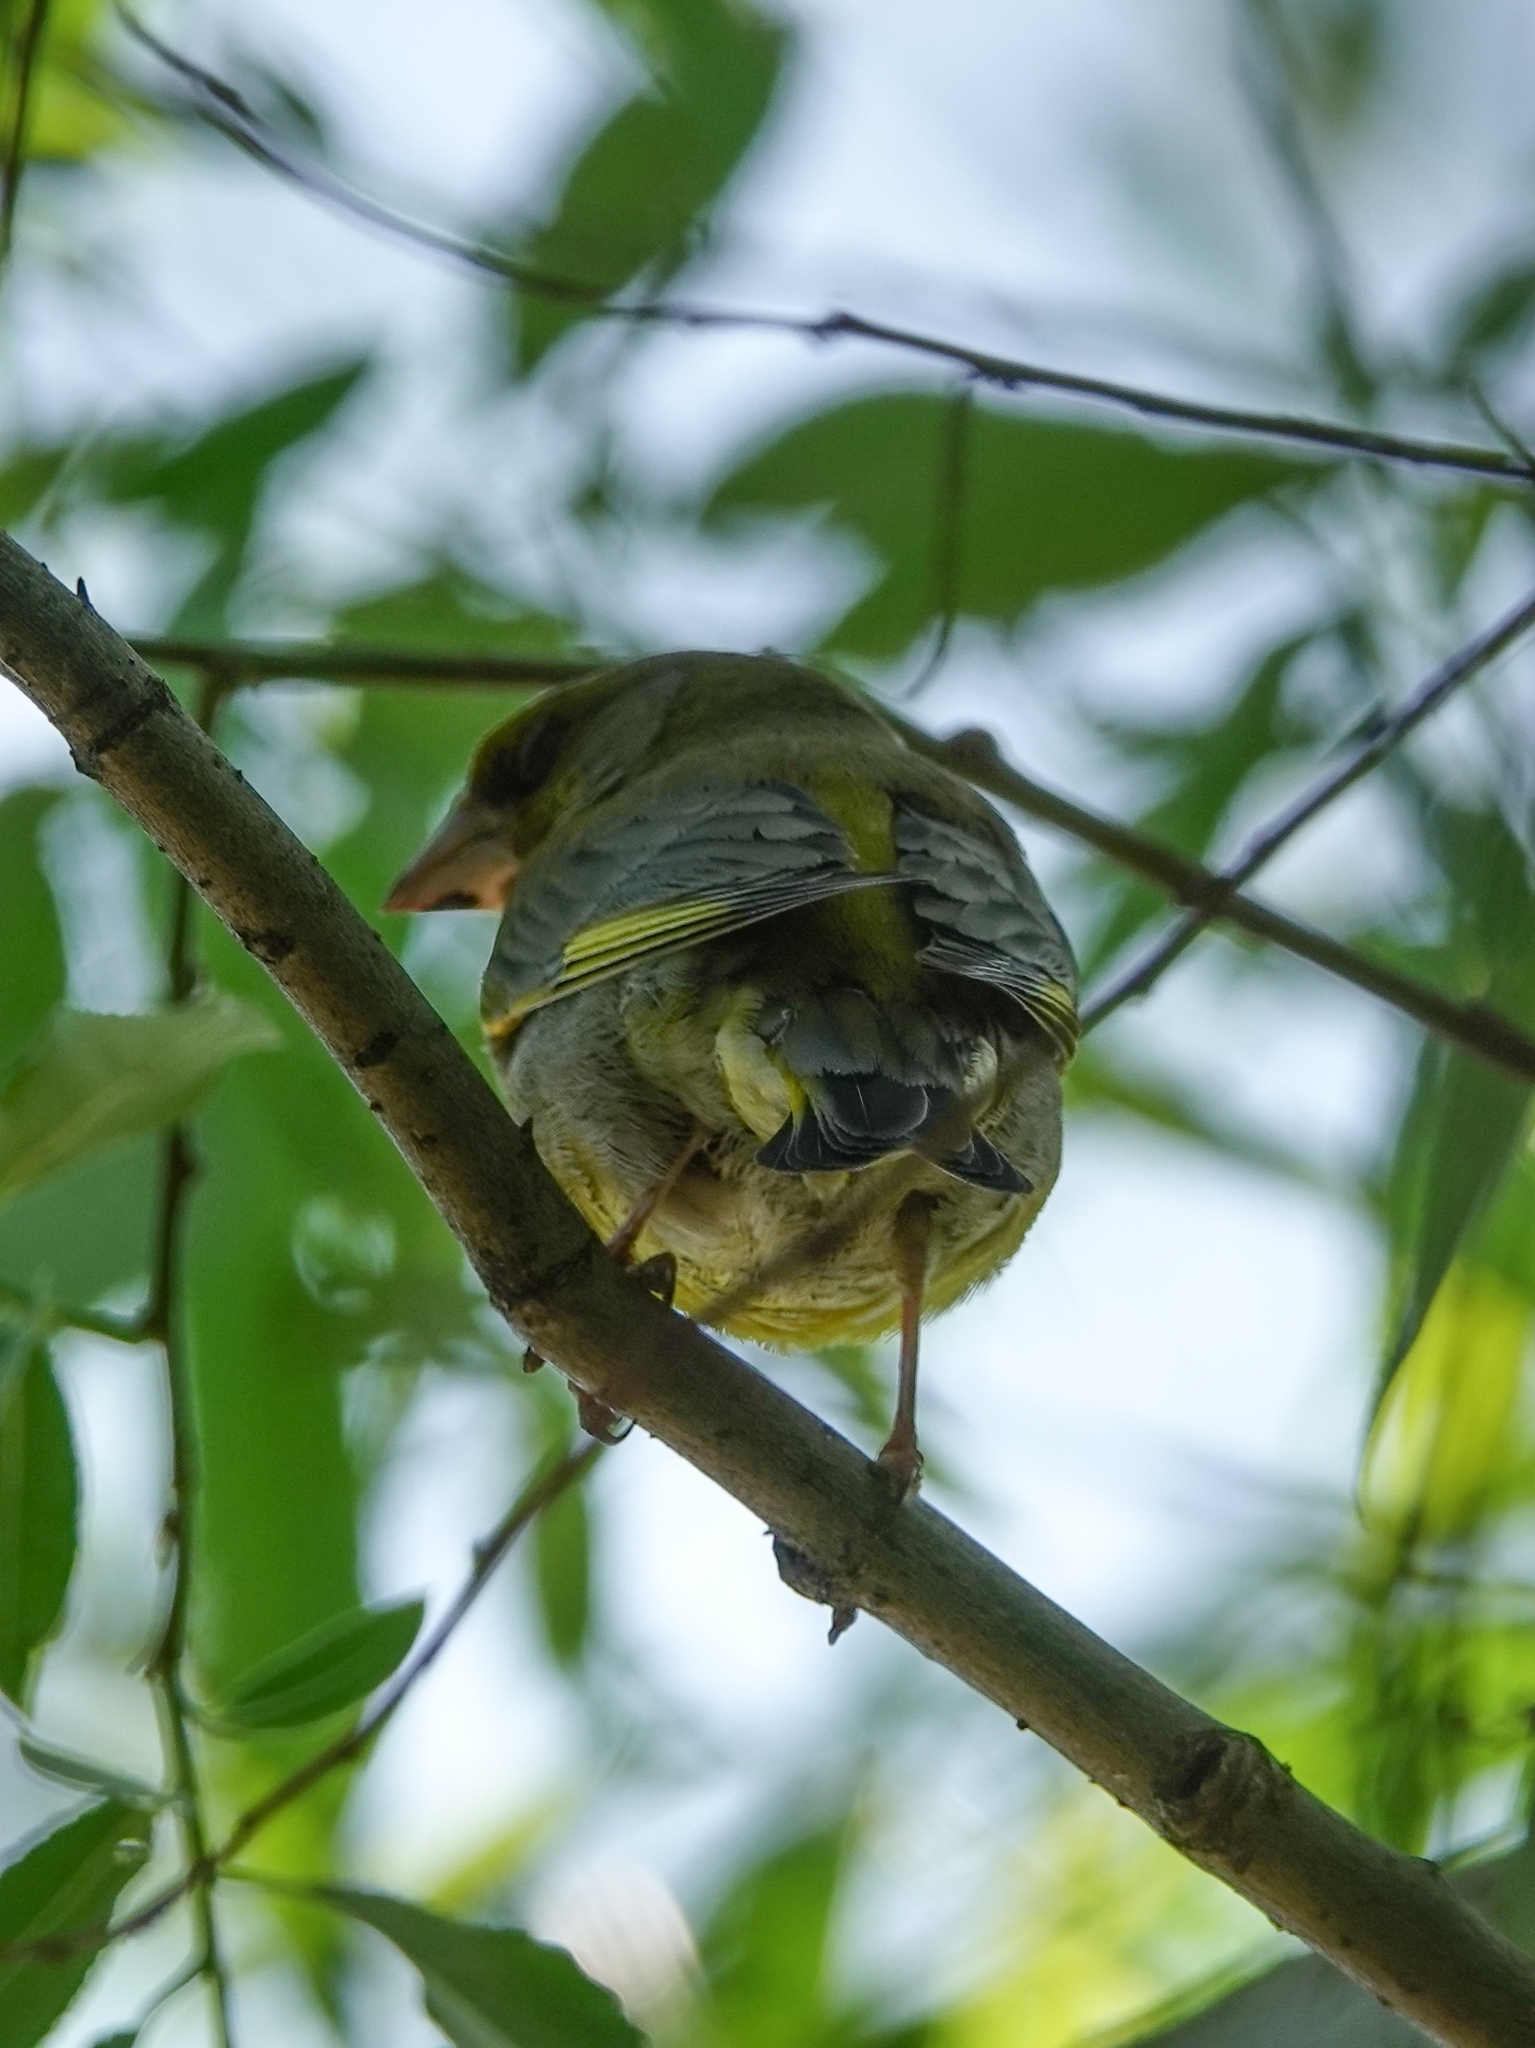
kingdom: Plantae
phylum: Tracheophyta
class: Liliopsida
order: Poales
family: Poaceae
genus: Chloris
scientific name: Chloris chloris
